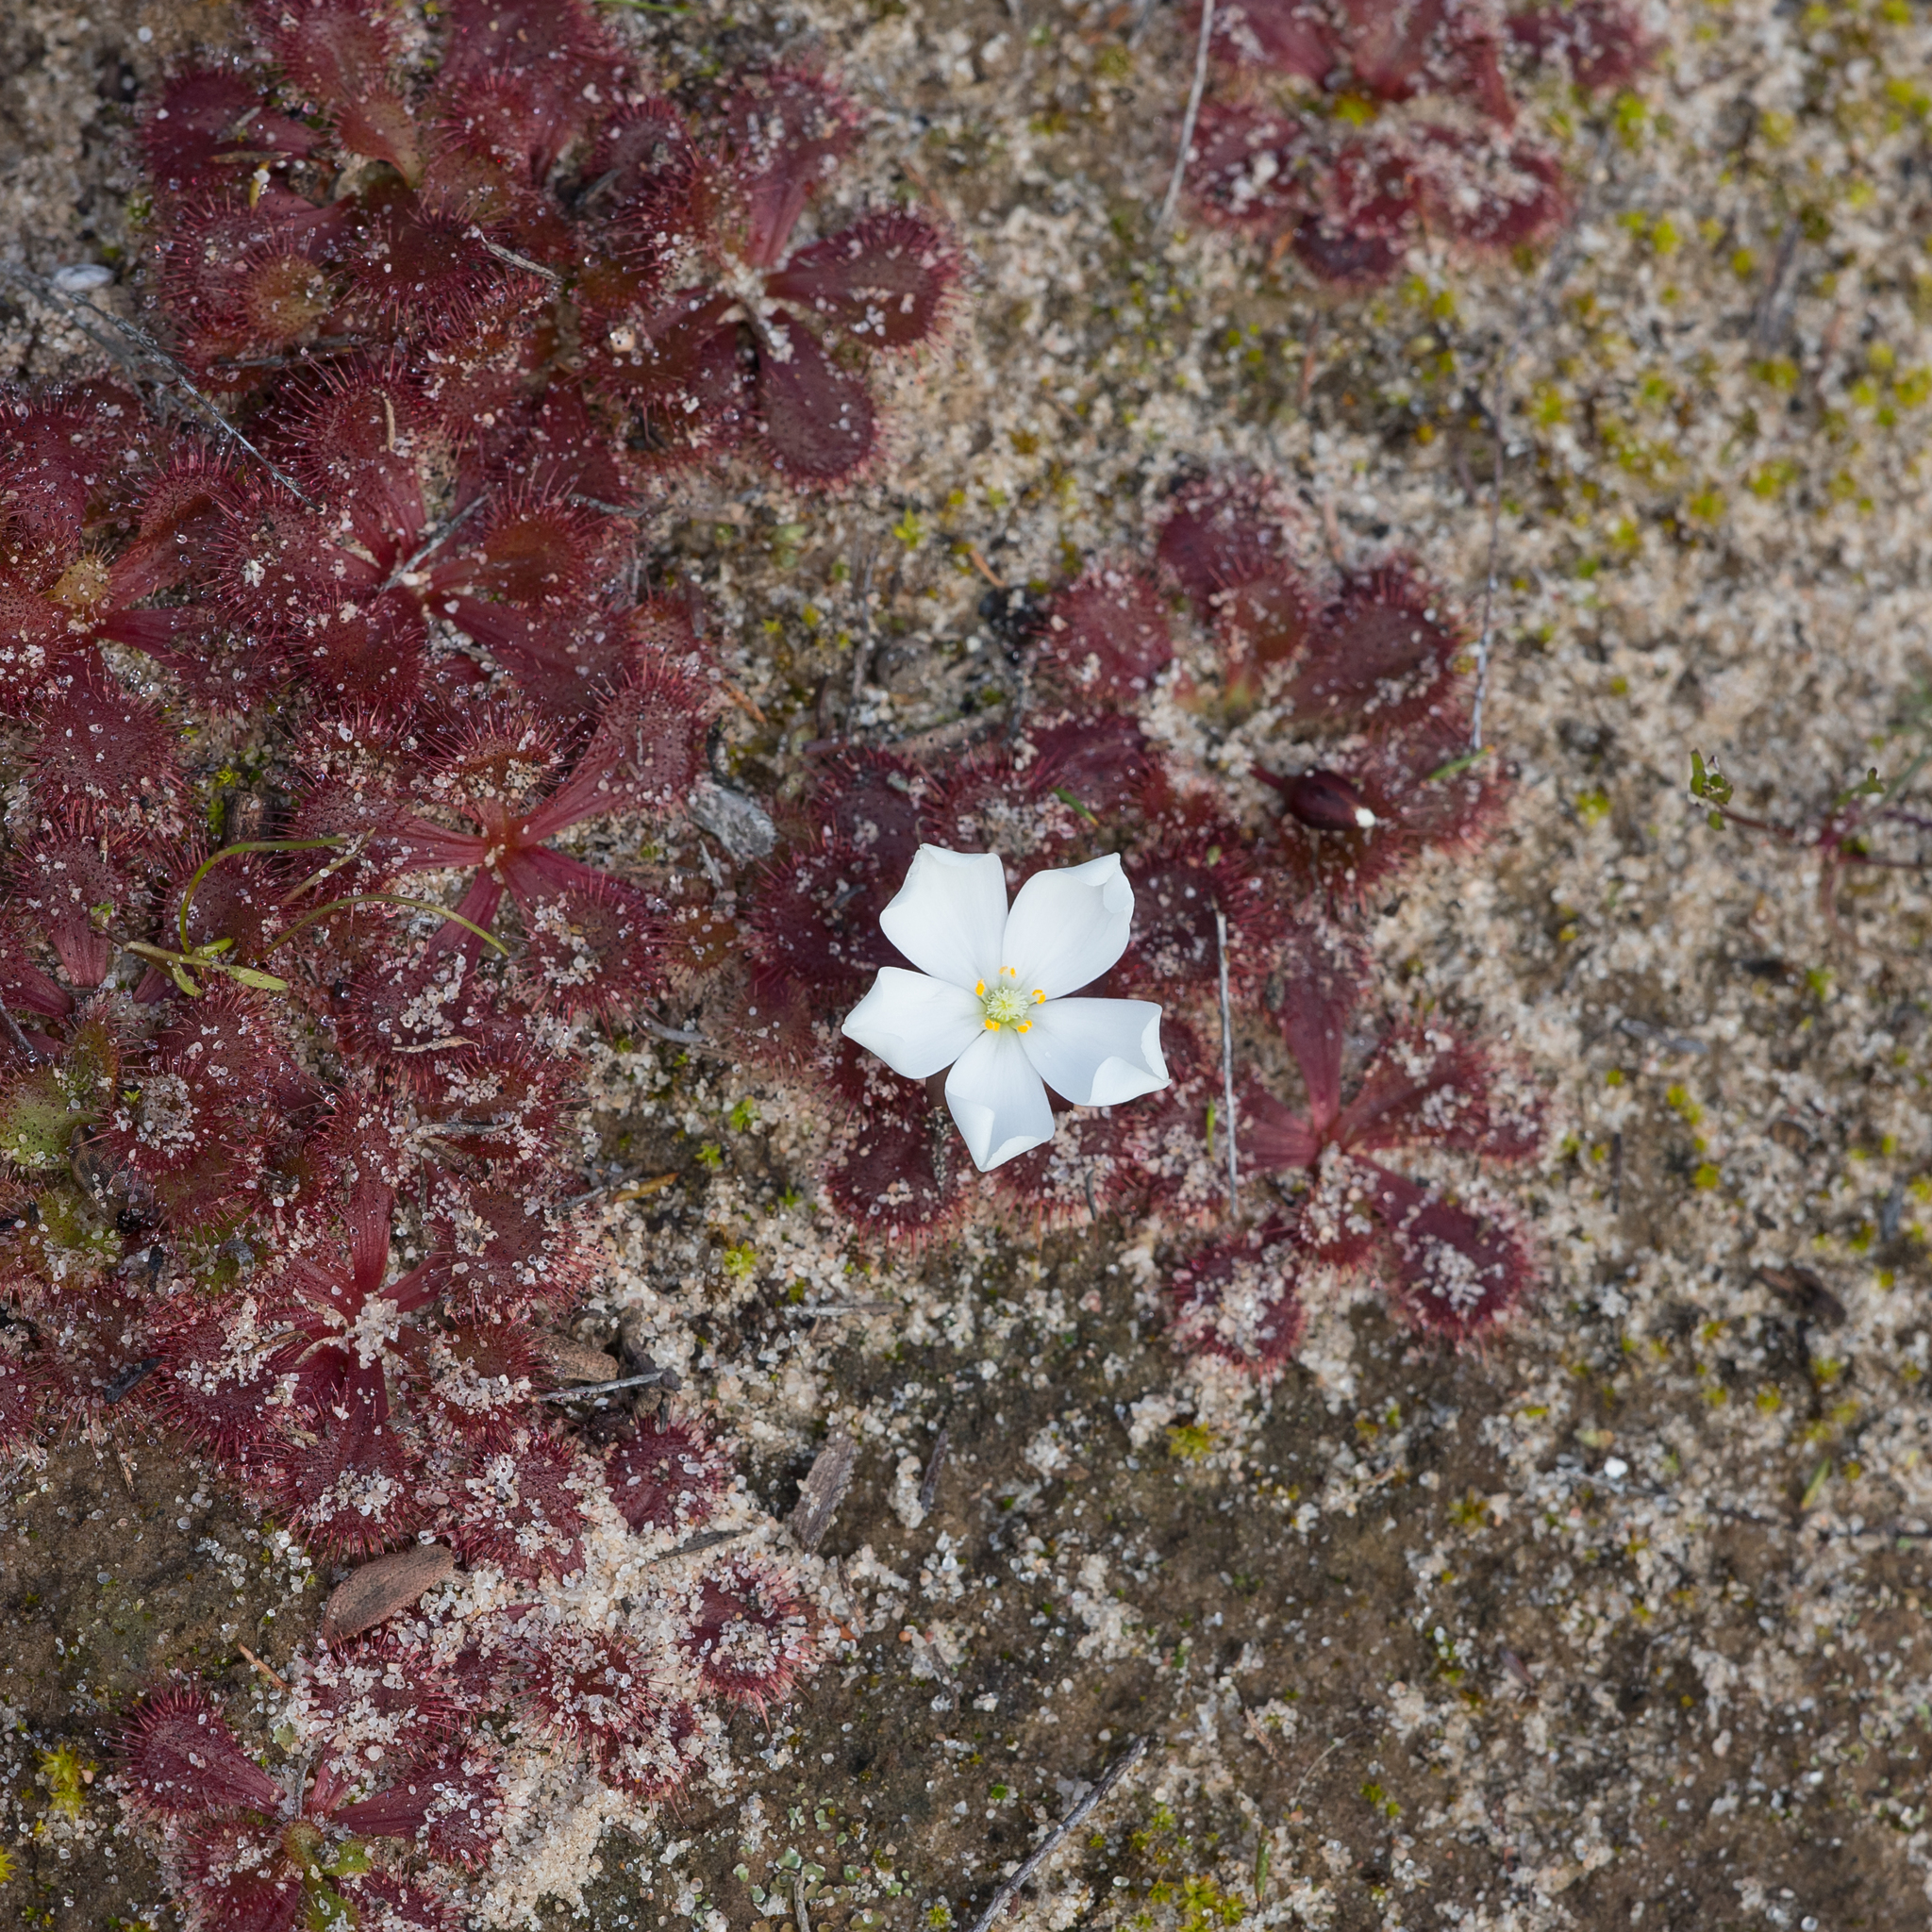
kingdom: Plantae
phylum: Tracheophyta
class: Magnoliopsida
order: Caryophyllales
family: Droseraceae
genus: Drosera
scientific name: Drosera aberrans
